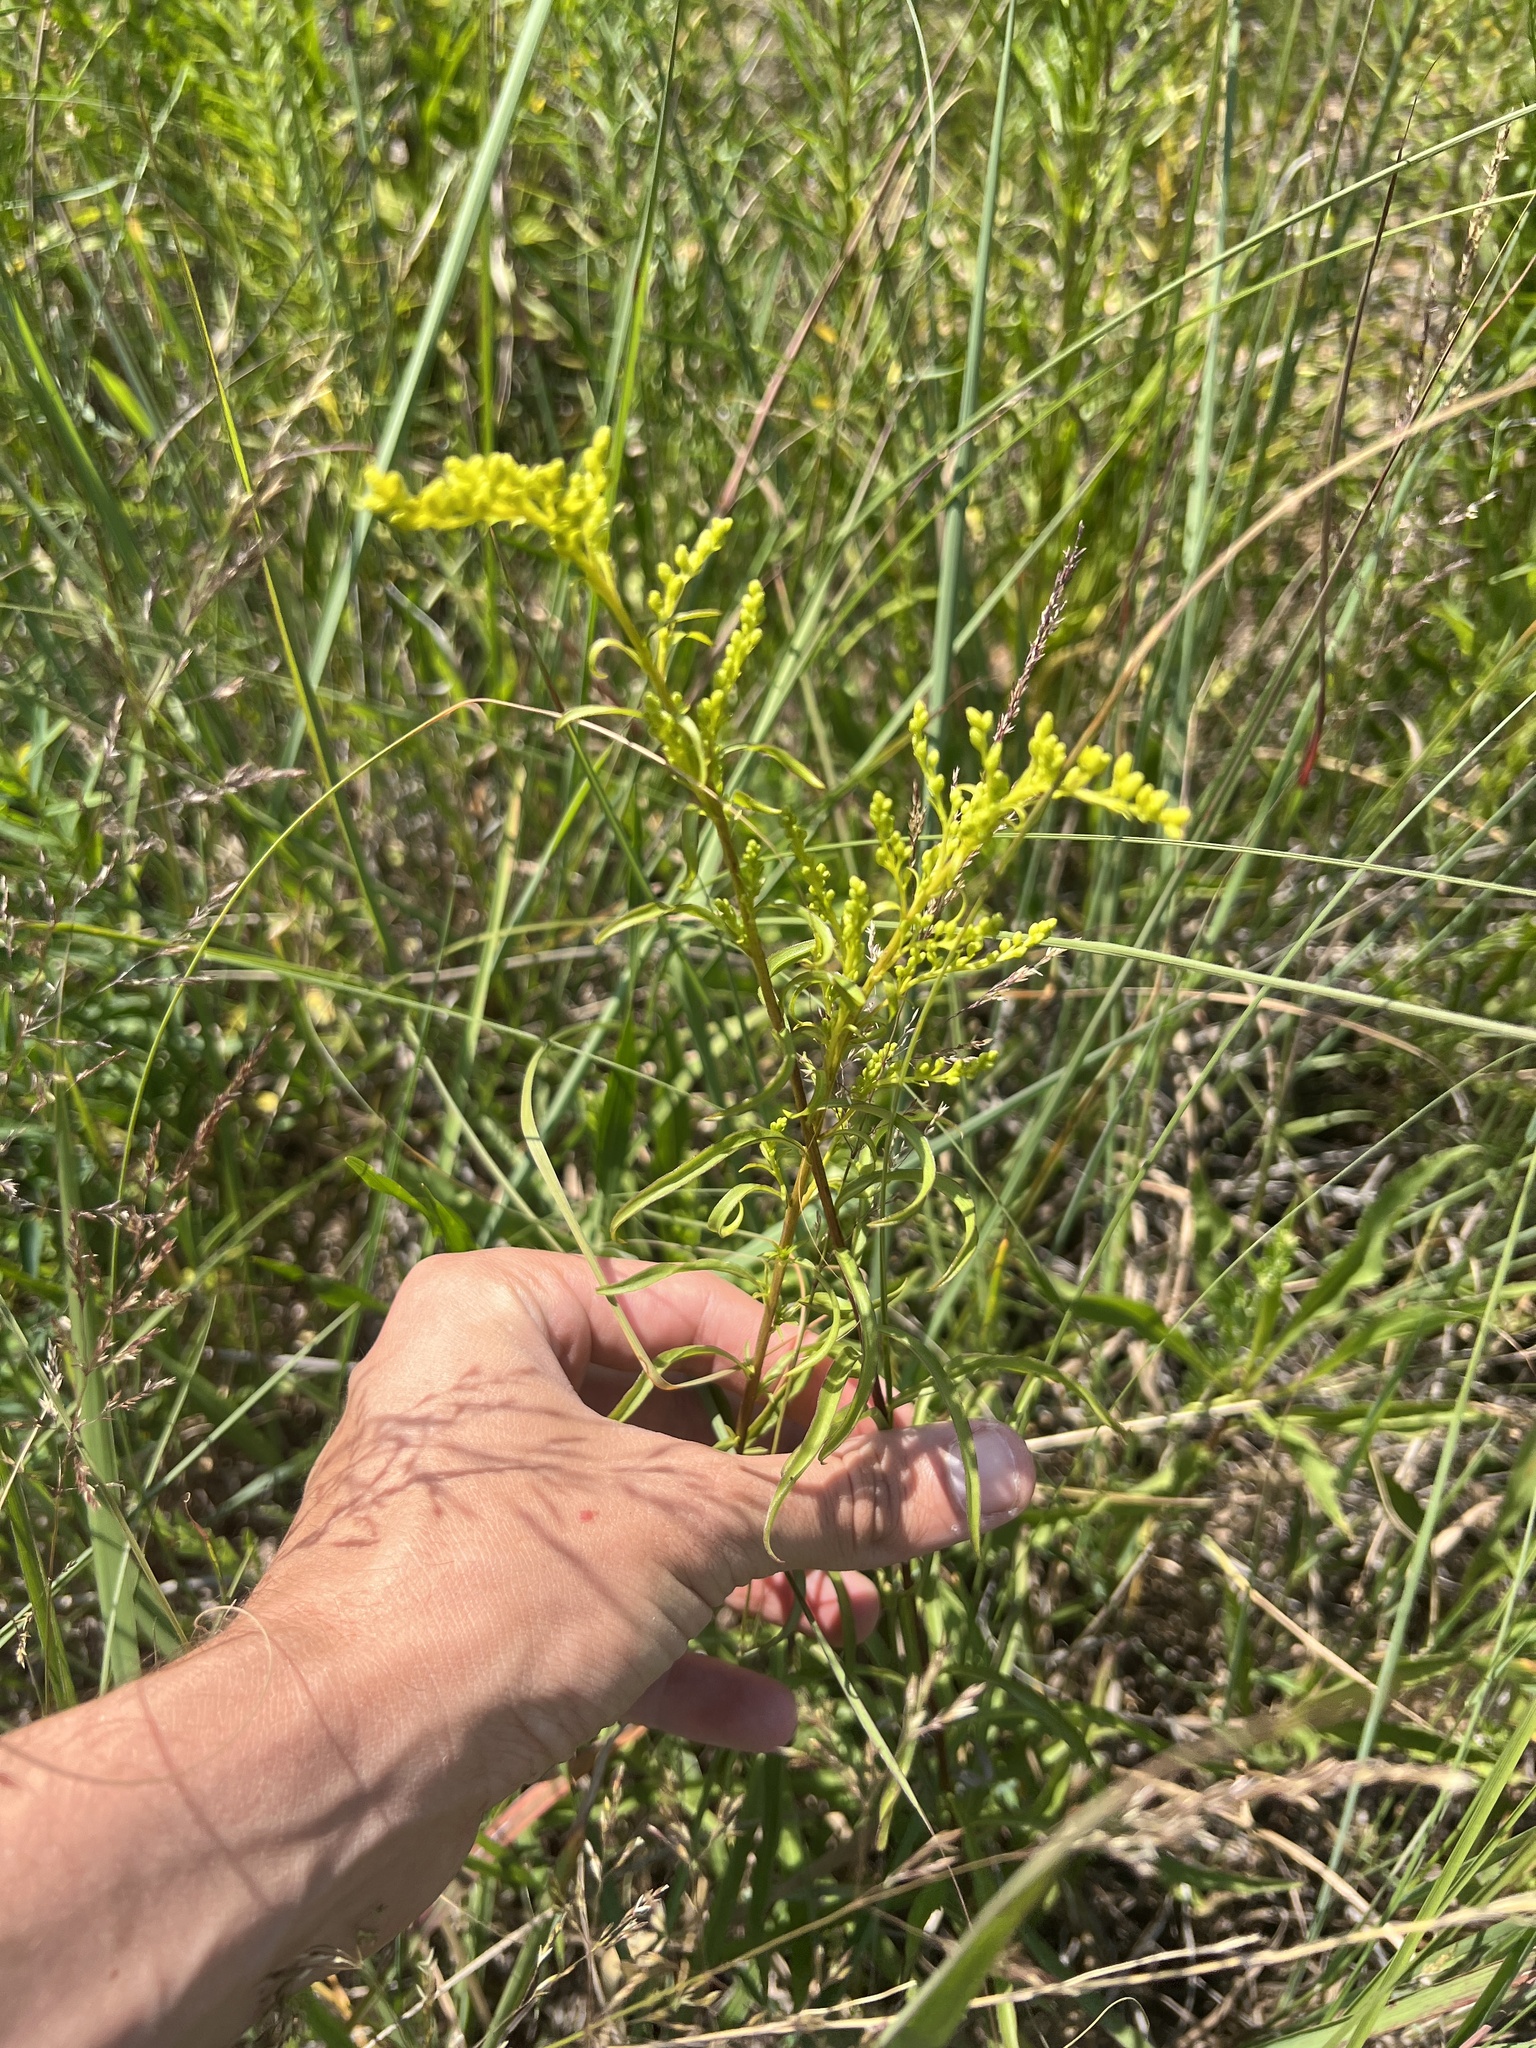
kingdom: Plantae
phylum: Tracheophyta
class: Magnoliopsida
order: Asterales
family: Asteraceae
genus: Solidago
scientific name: Solidago missouriensis
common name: Prairie goldenrod
